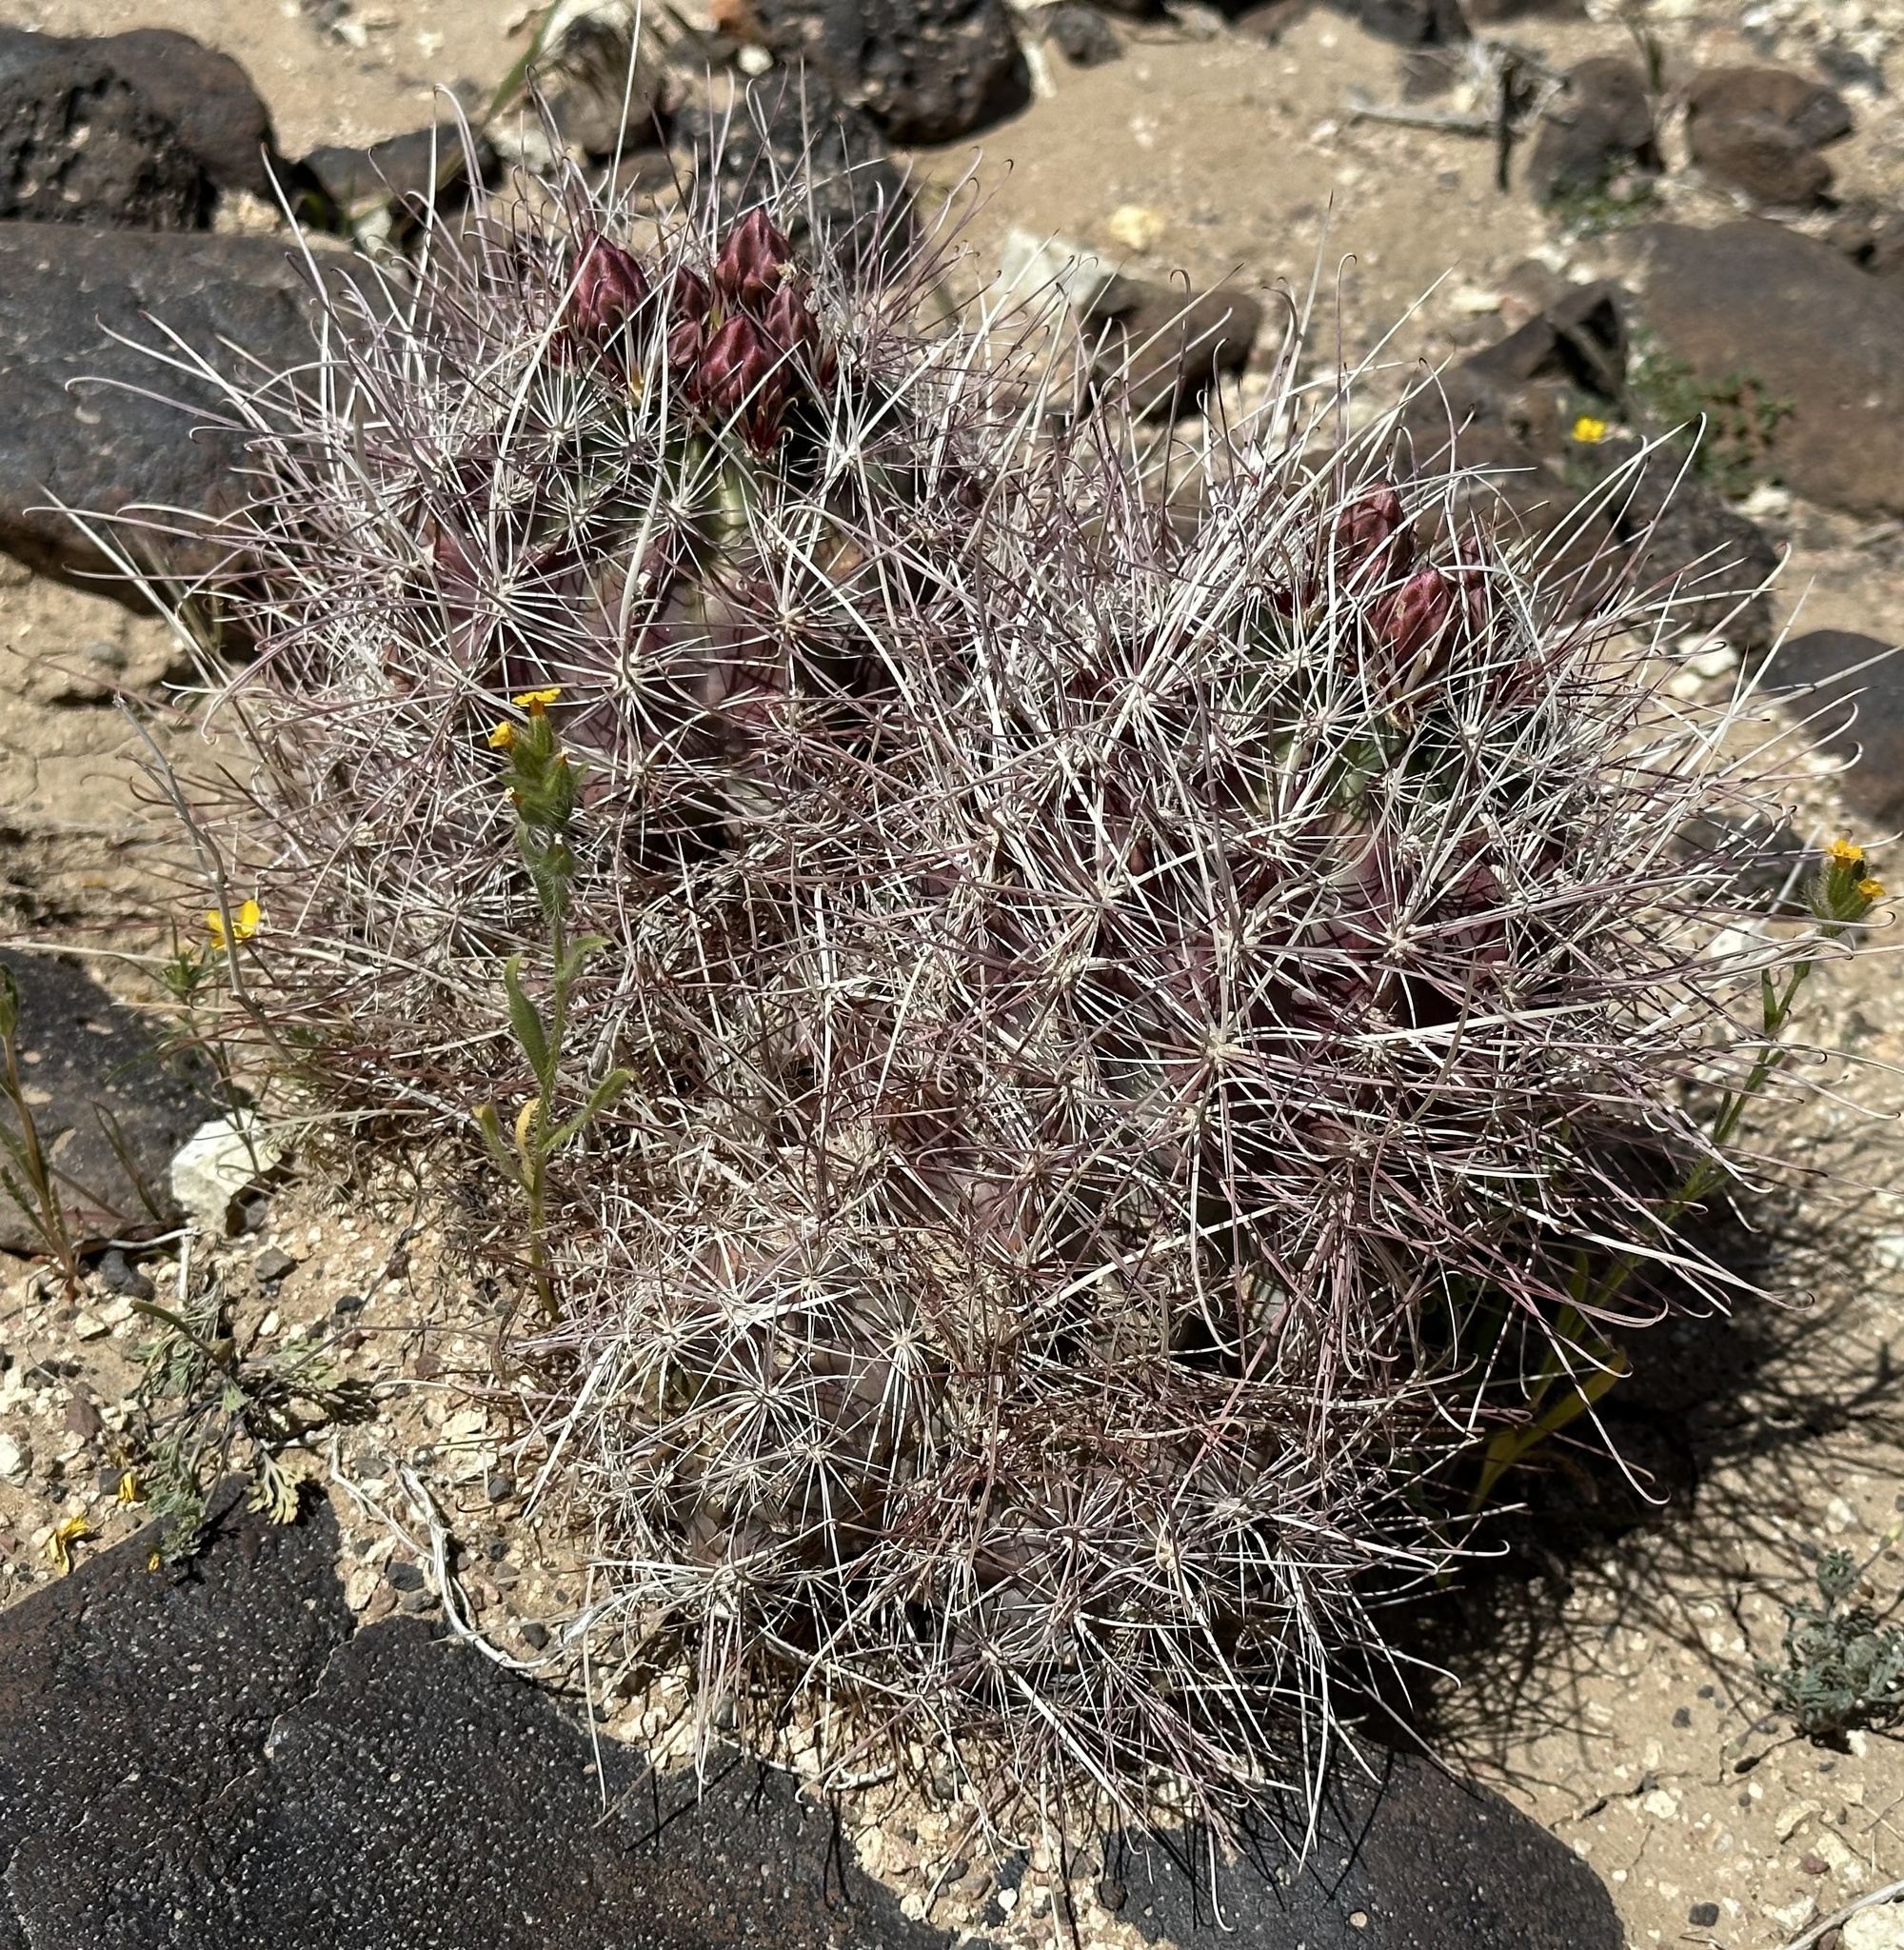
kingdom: Plantae
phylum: Tracheophyta
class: Magnoliopsida
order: Caryophyllales
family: Cactaceae
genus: Sclerocactus
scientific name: Sclerocactus polyancistrus
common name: Mohave fishhook cactus
